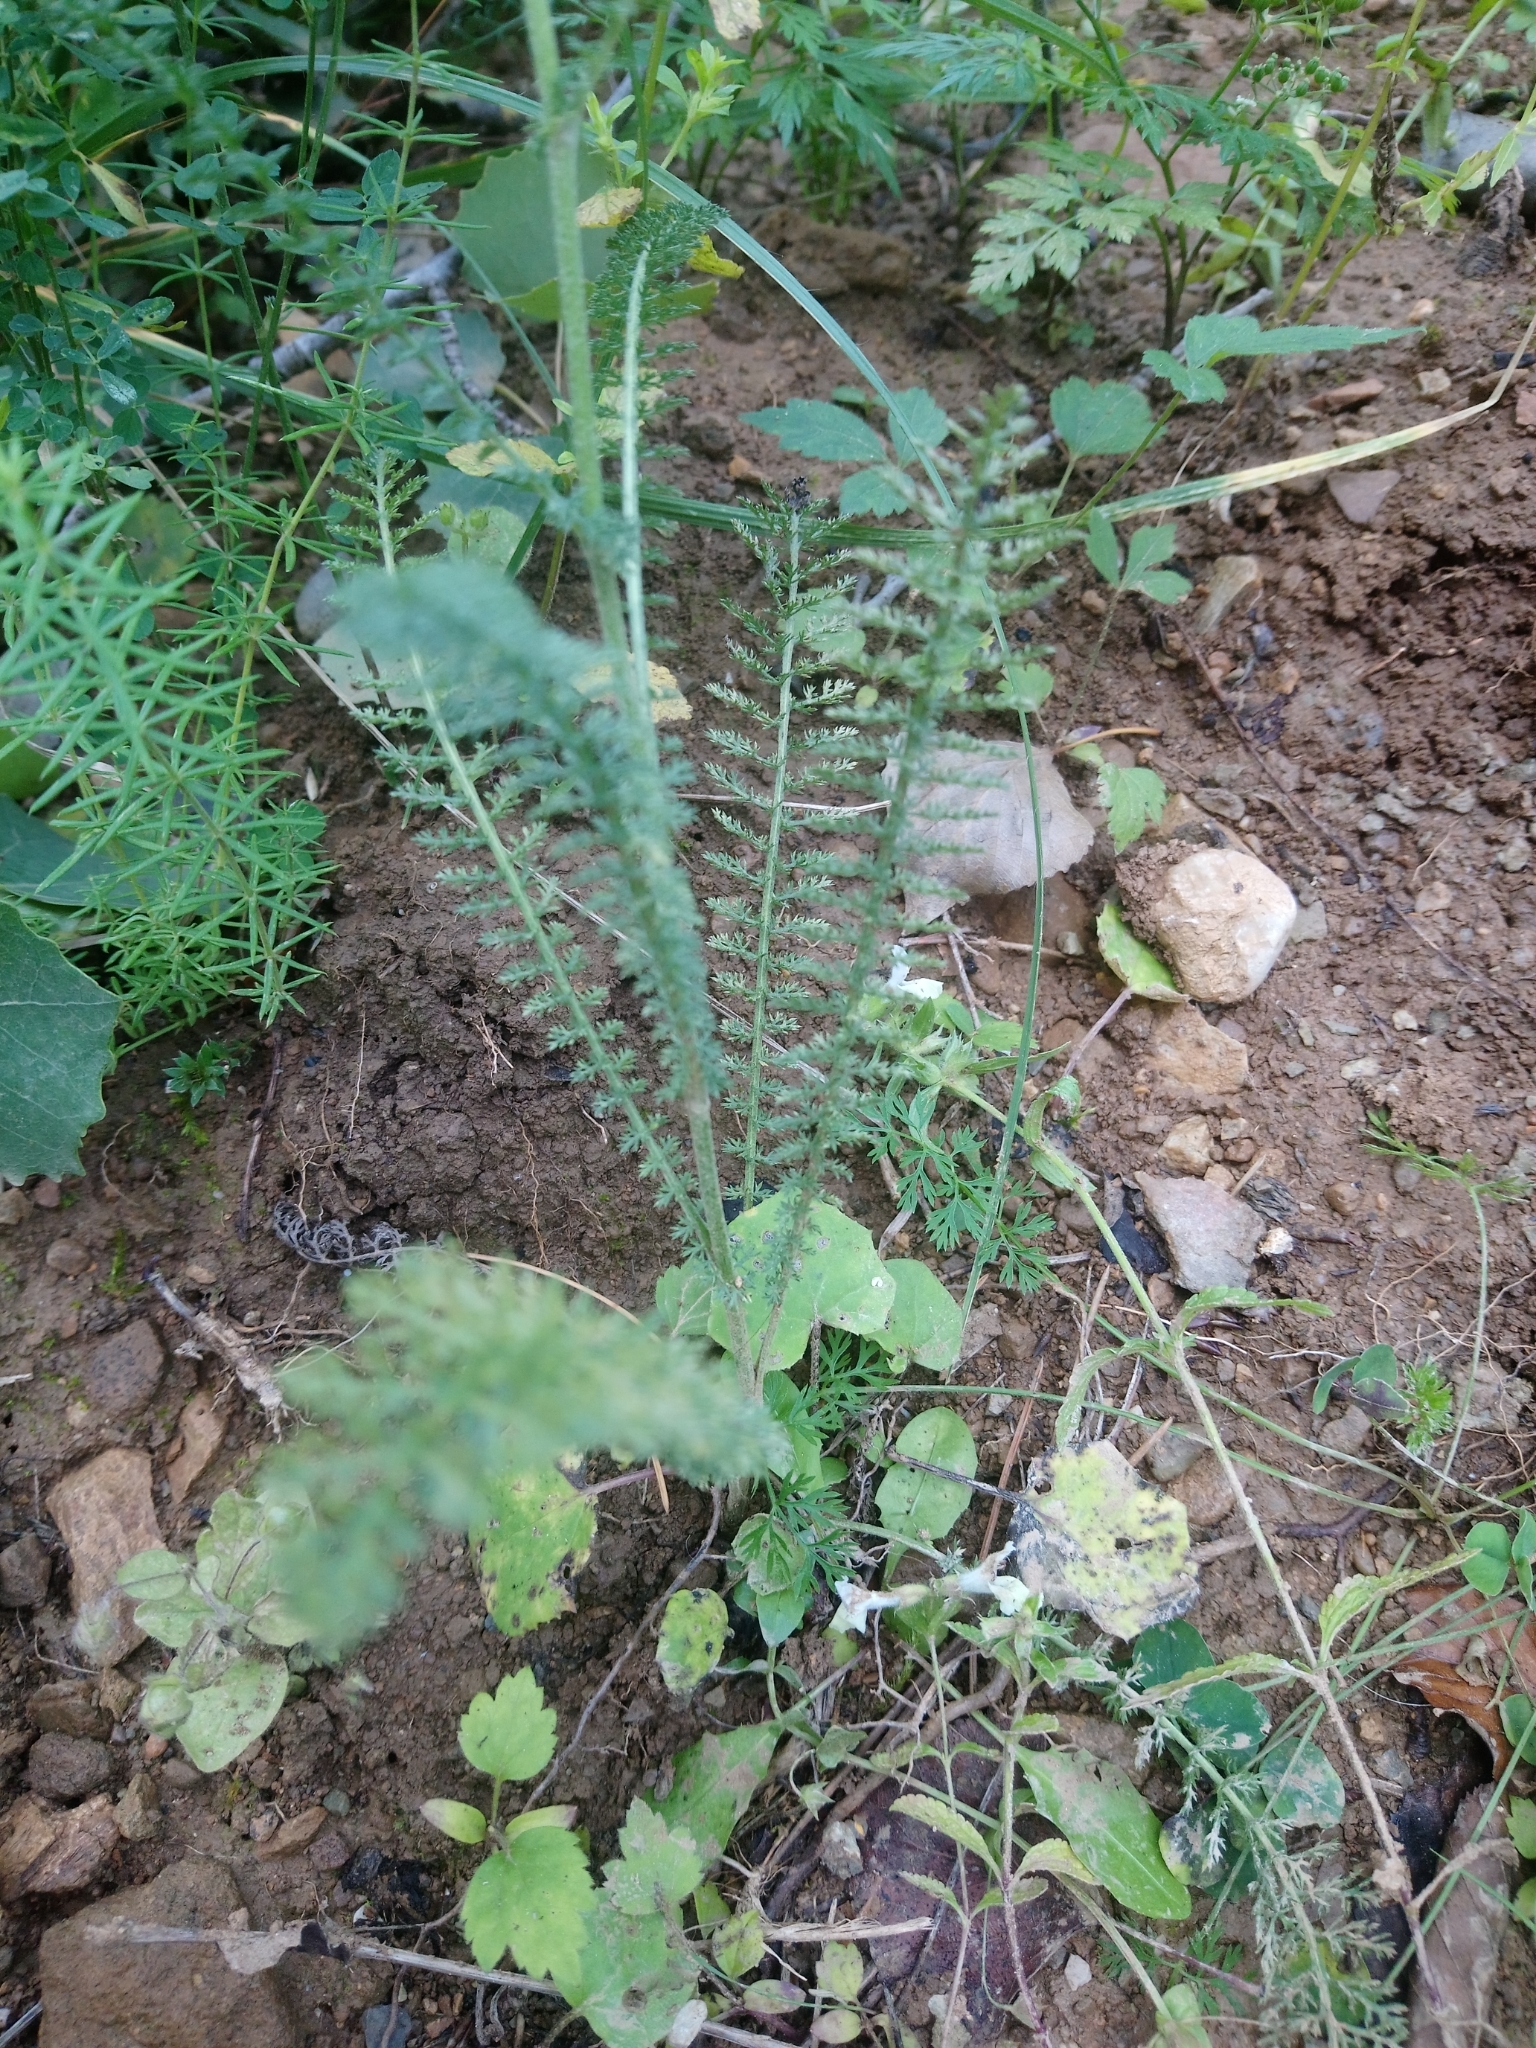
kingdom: Plantae
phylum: Tracheophyta
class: Magnoliopsida
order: Asterales
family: Asteraceae
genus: Achillea
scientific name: Achillea millefolium
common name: Yarrow
